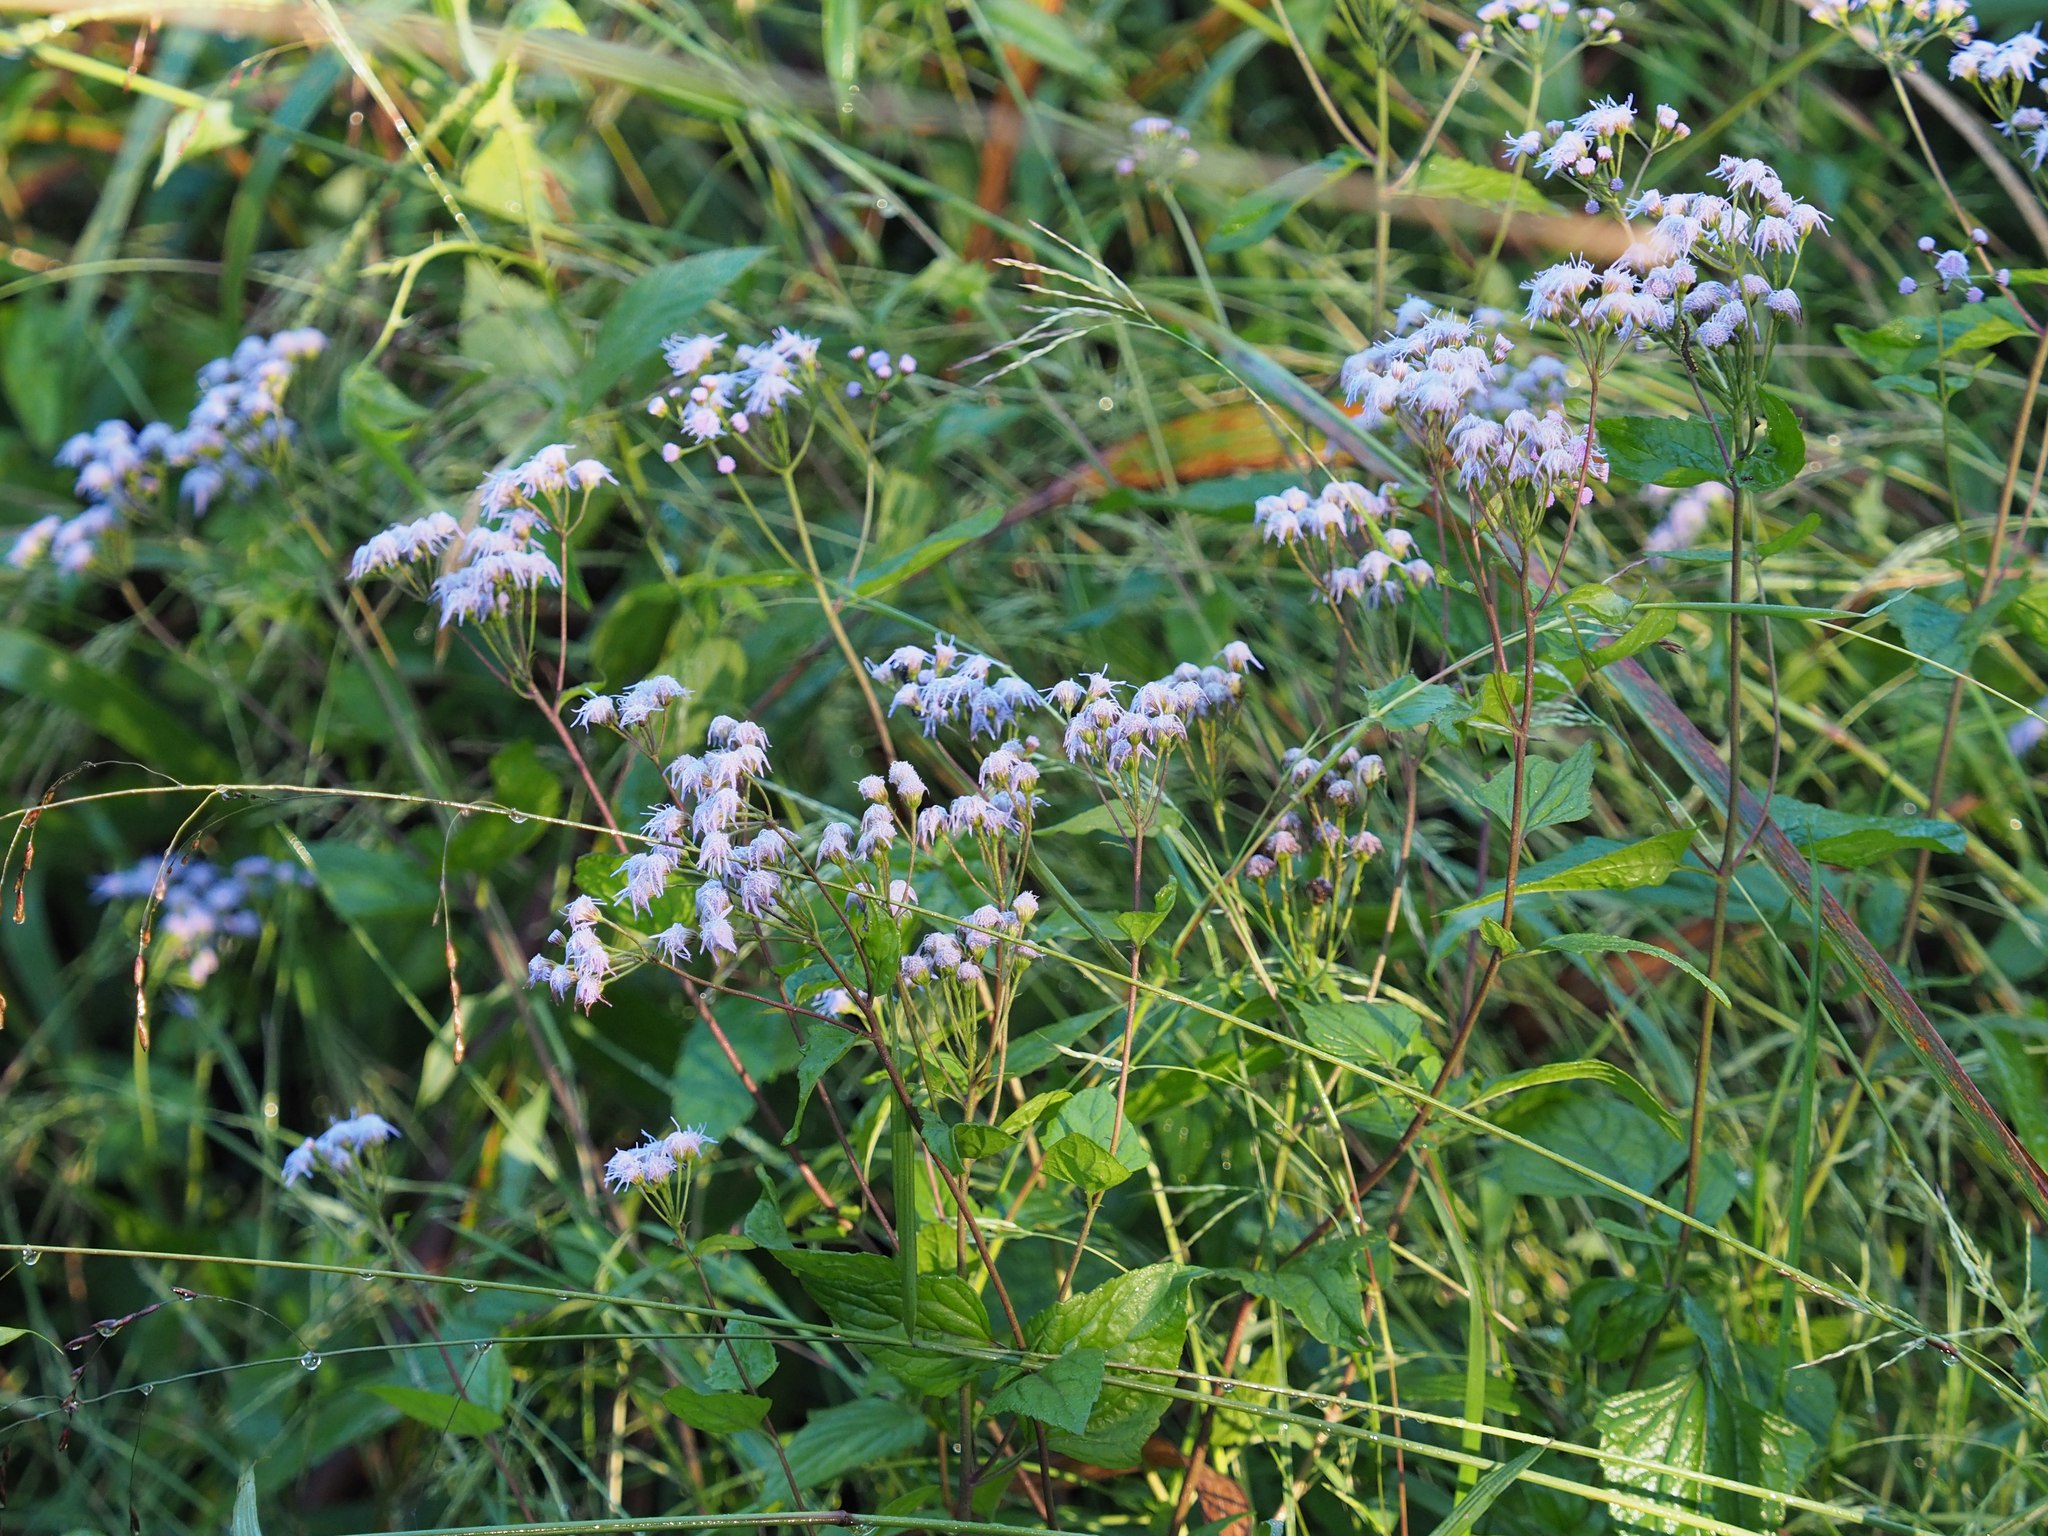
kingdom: Plantae
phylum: Tracheophyta
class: Magnoliopsida
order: Asterales
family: Asteraceae
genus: Conoclinium
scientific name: Conoclinium coelestinum
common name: Blue mistflower
